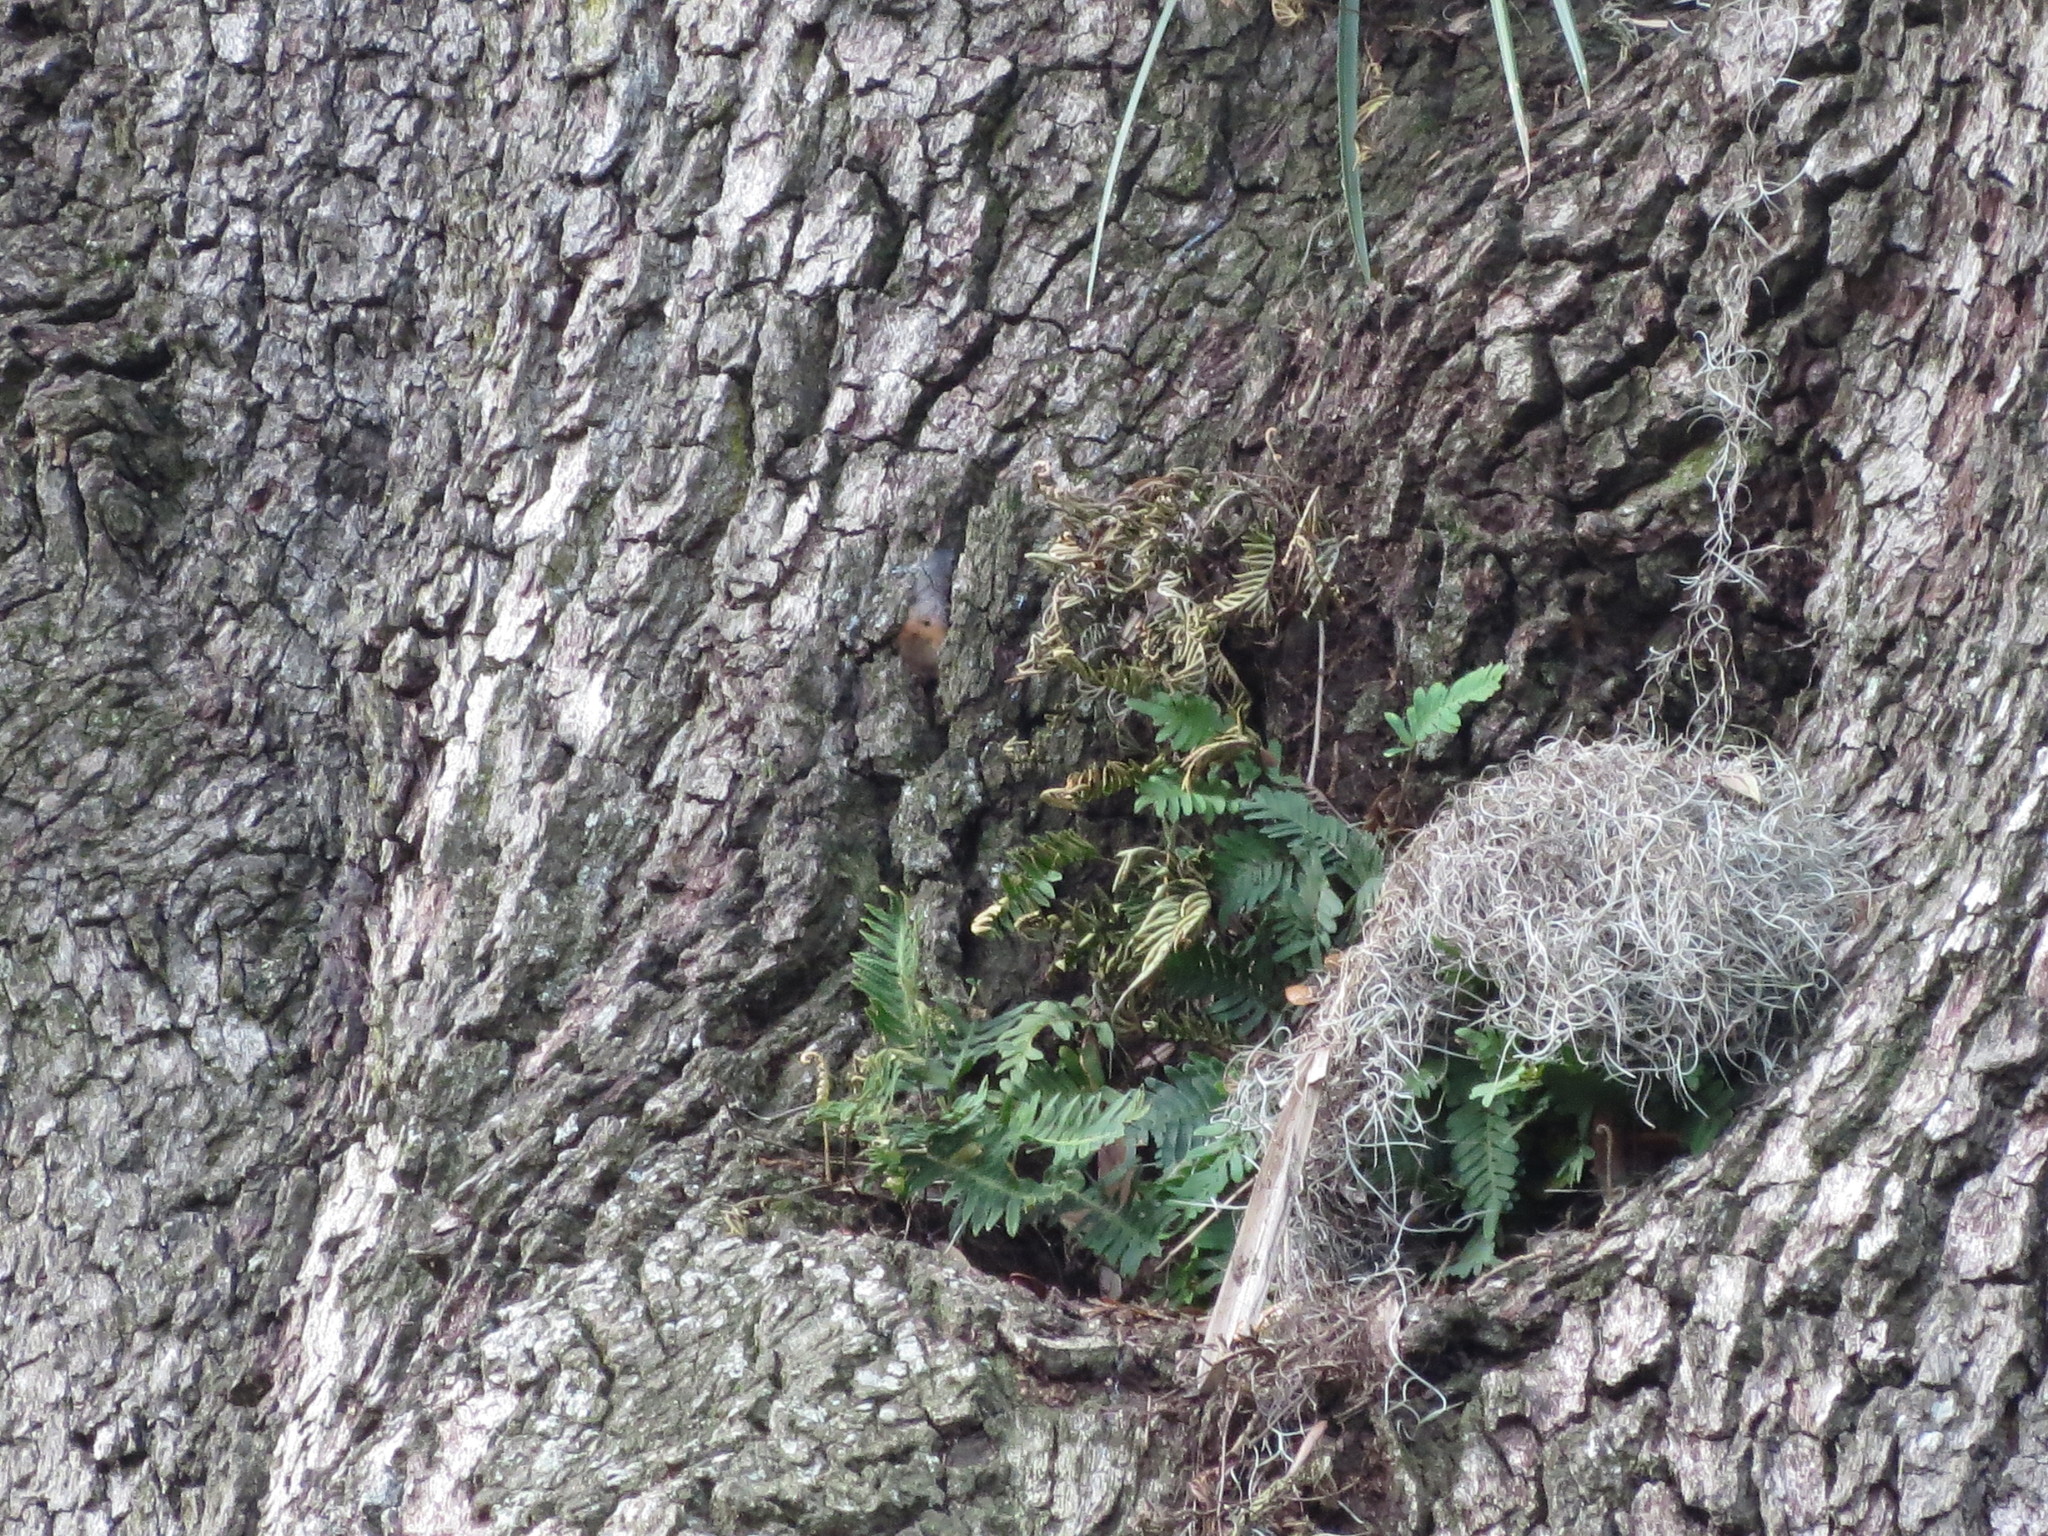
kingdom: Plantae
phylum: Tracheophyta
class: Polypodiopsida
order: Polypodiales
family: Polypodiaceae
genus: Pleopeltis
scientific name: Pleopeltis michauxiana
